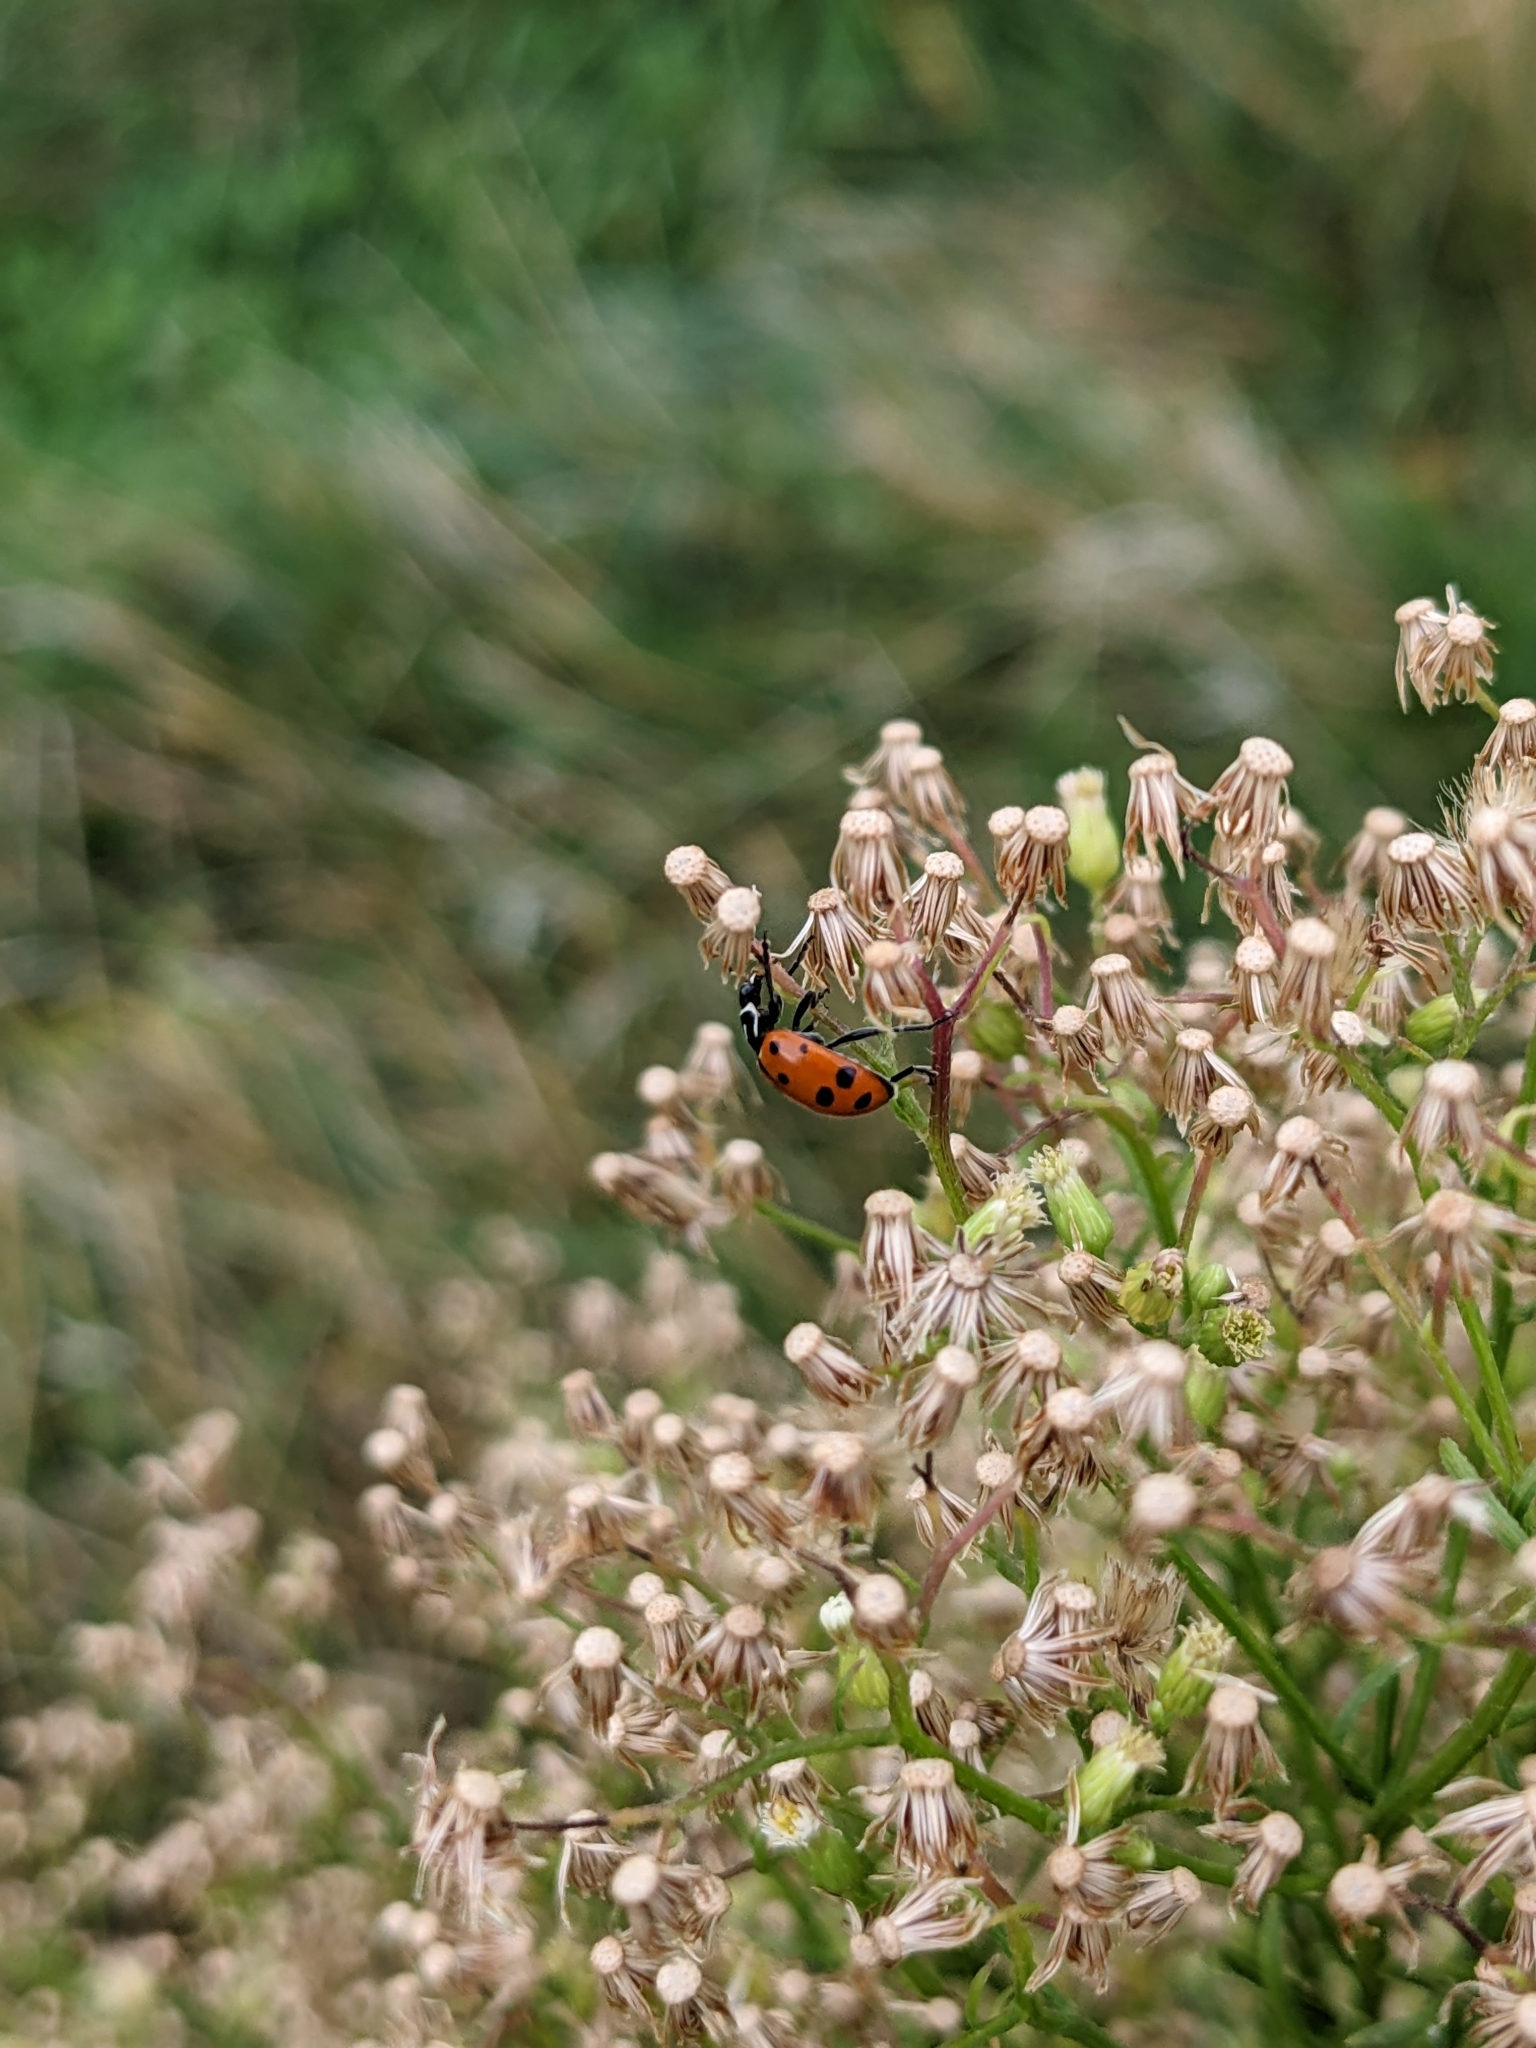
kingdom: Animalia
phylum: Arthropoda
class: Insecta
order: Coleoptera
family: Coccinellidae
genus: Hippodamia
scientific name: Hippodamia convergens
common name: Convergent lady beetle
